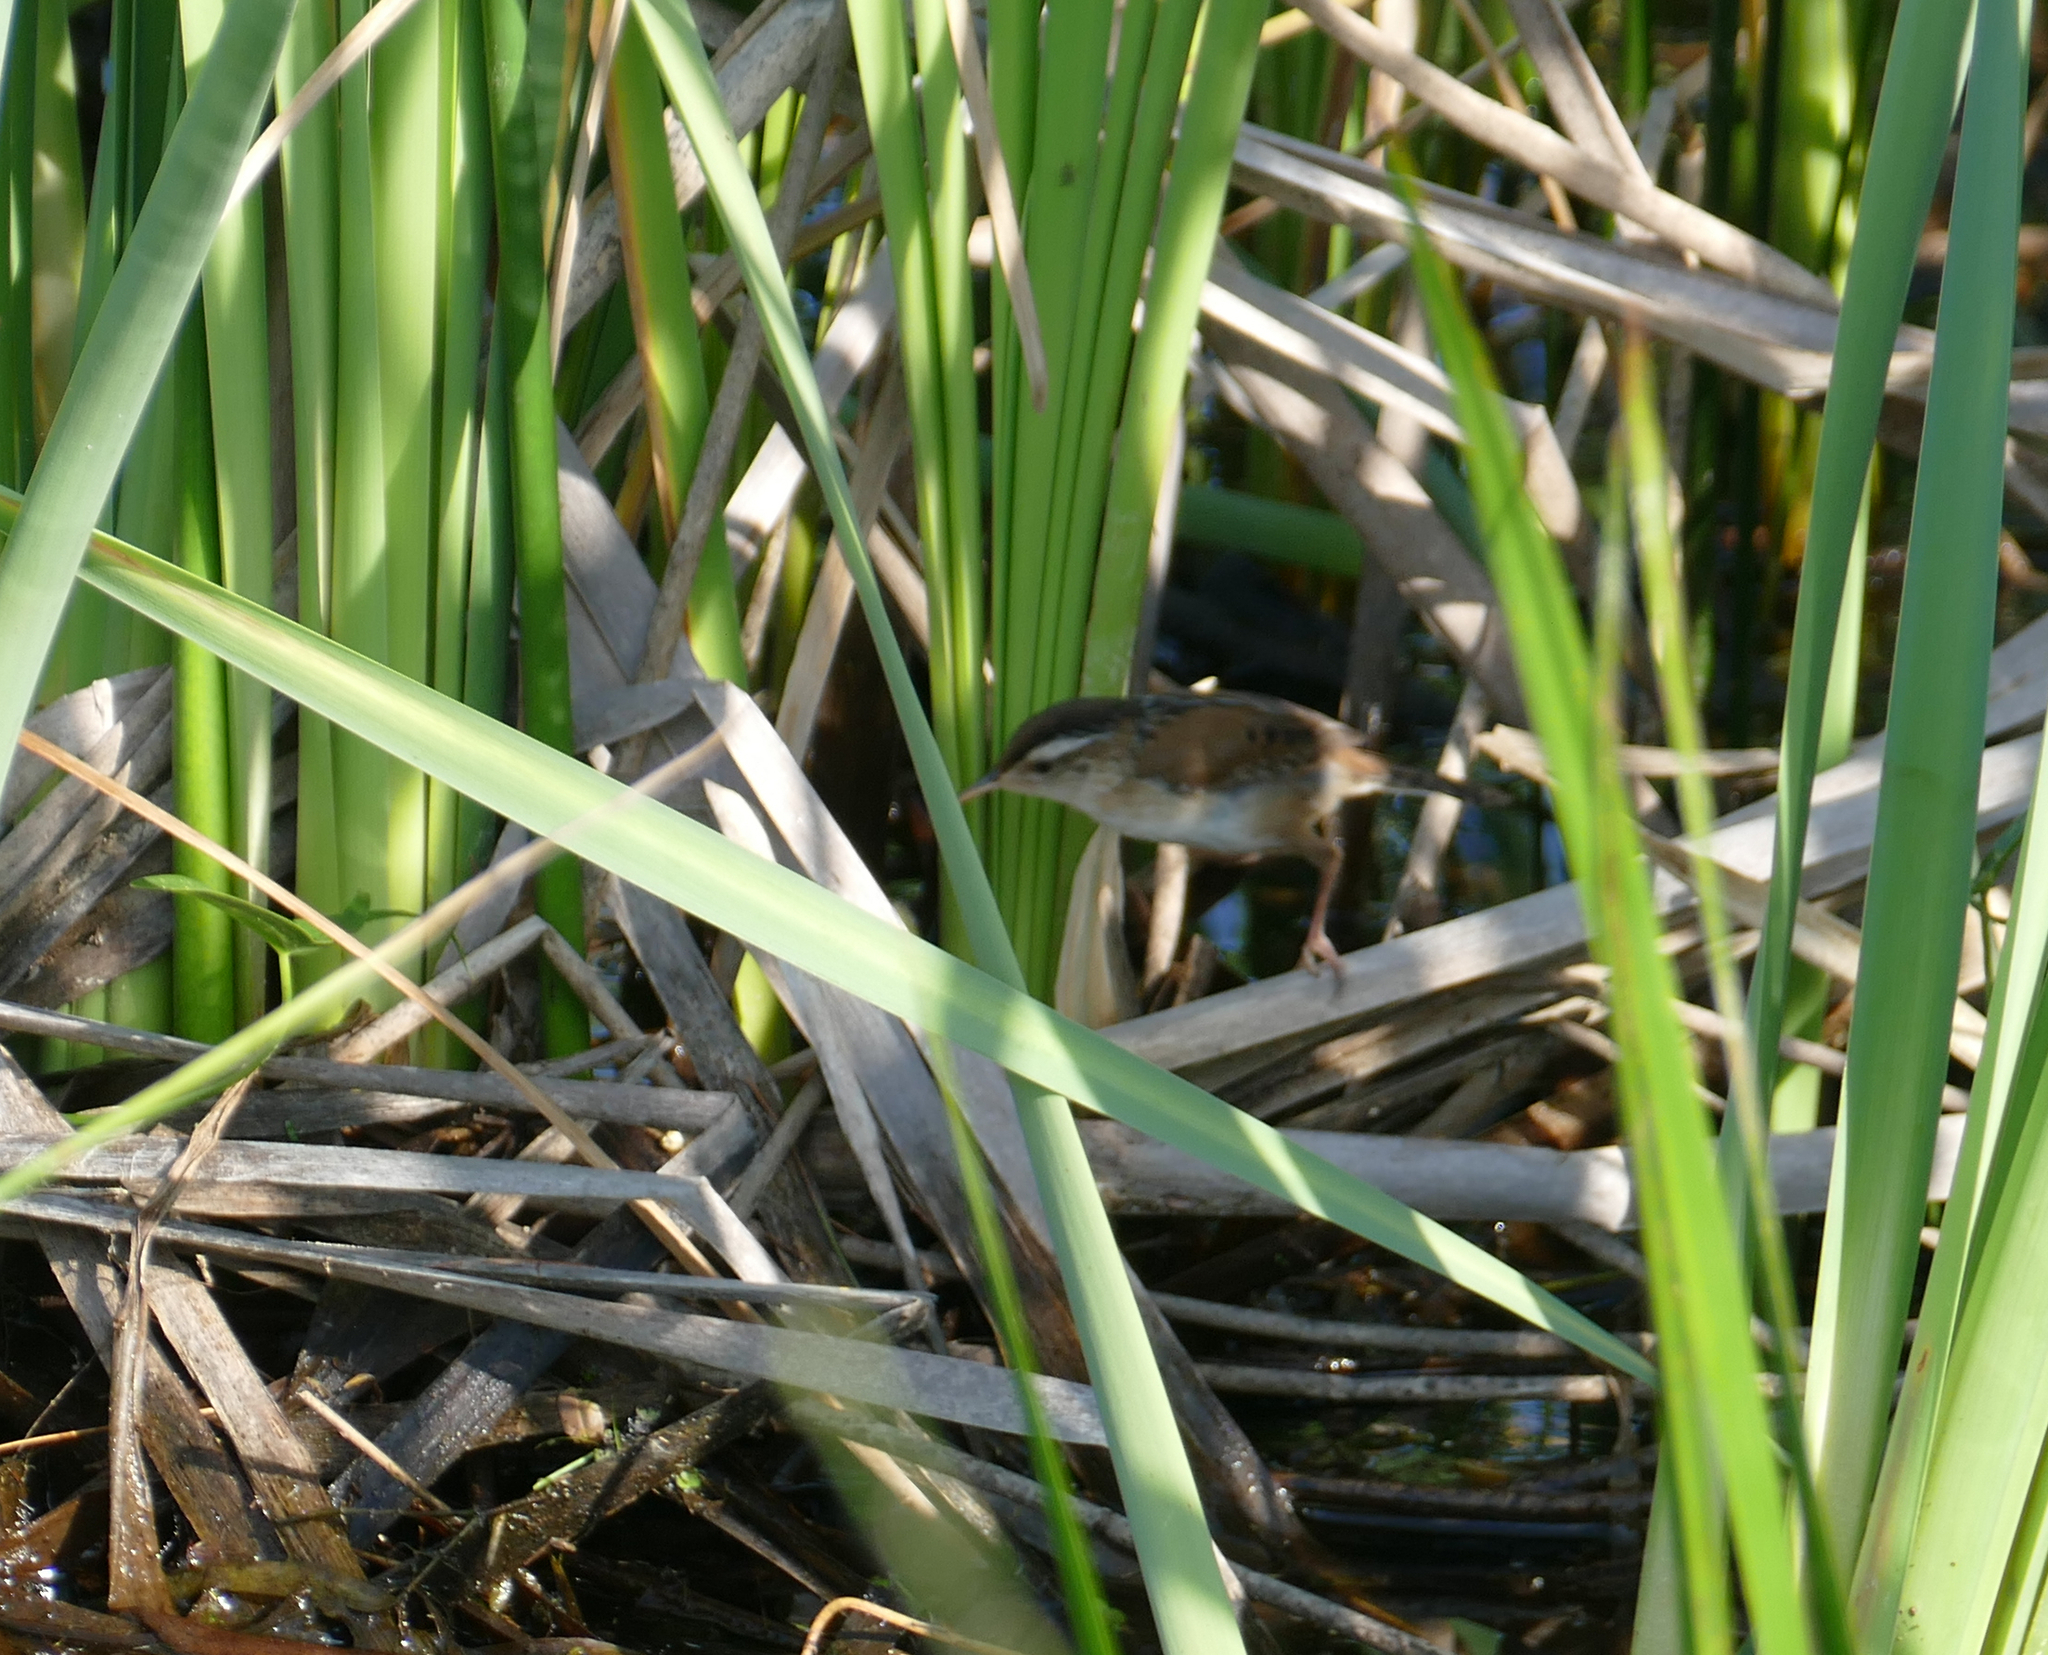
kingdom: Animalia
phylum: Chordata
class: Aves
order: Passeriformes
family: Troglodytidae
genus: Cistothorus
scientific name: Cistothorus palustris
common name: Marsh wren
